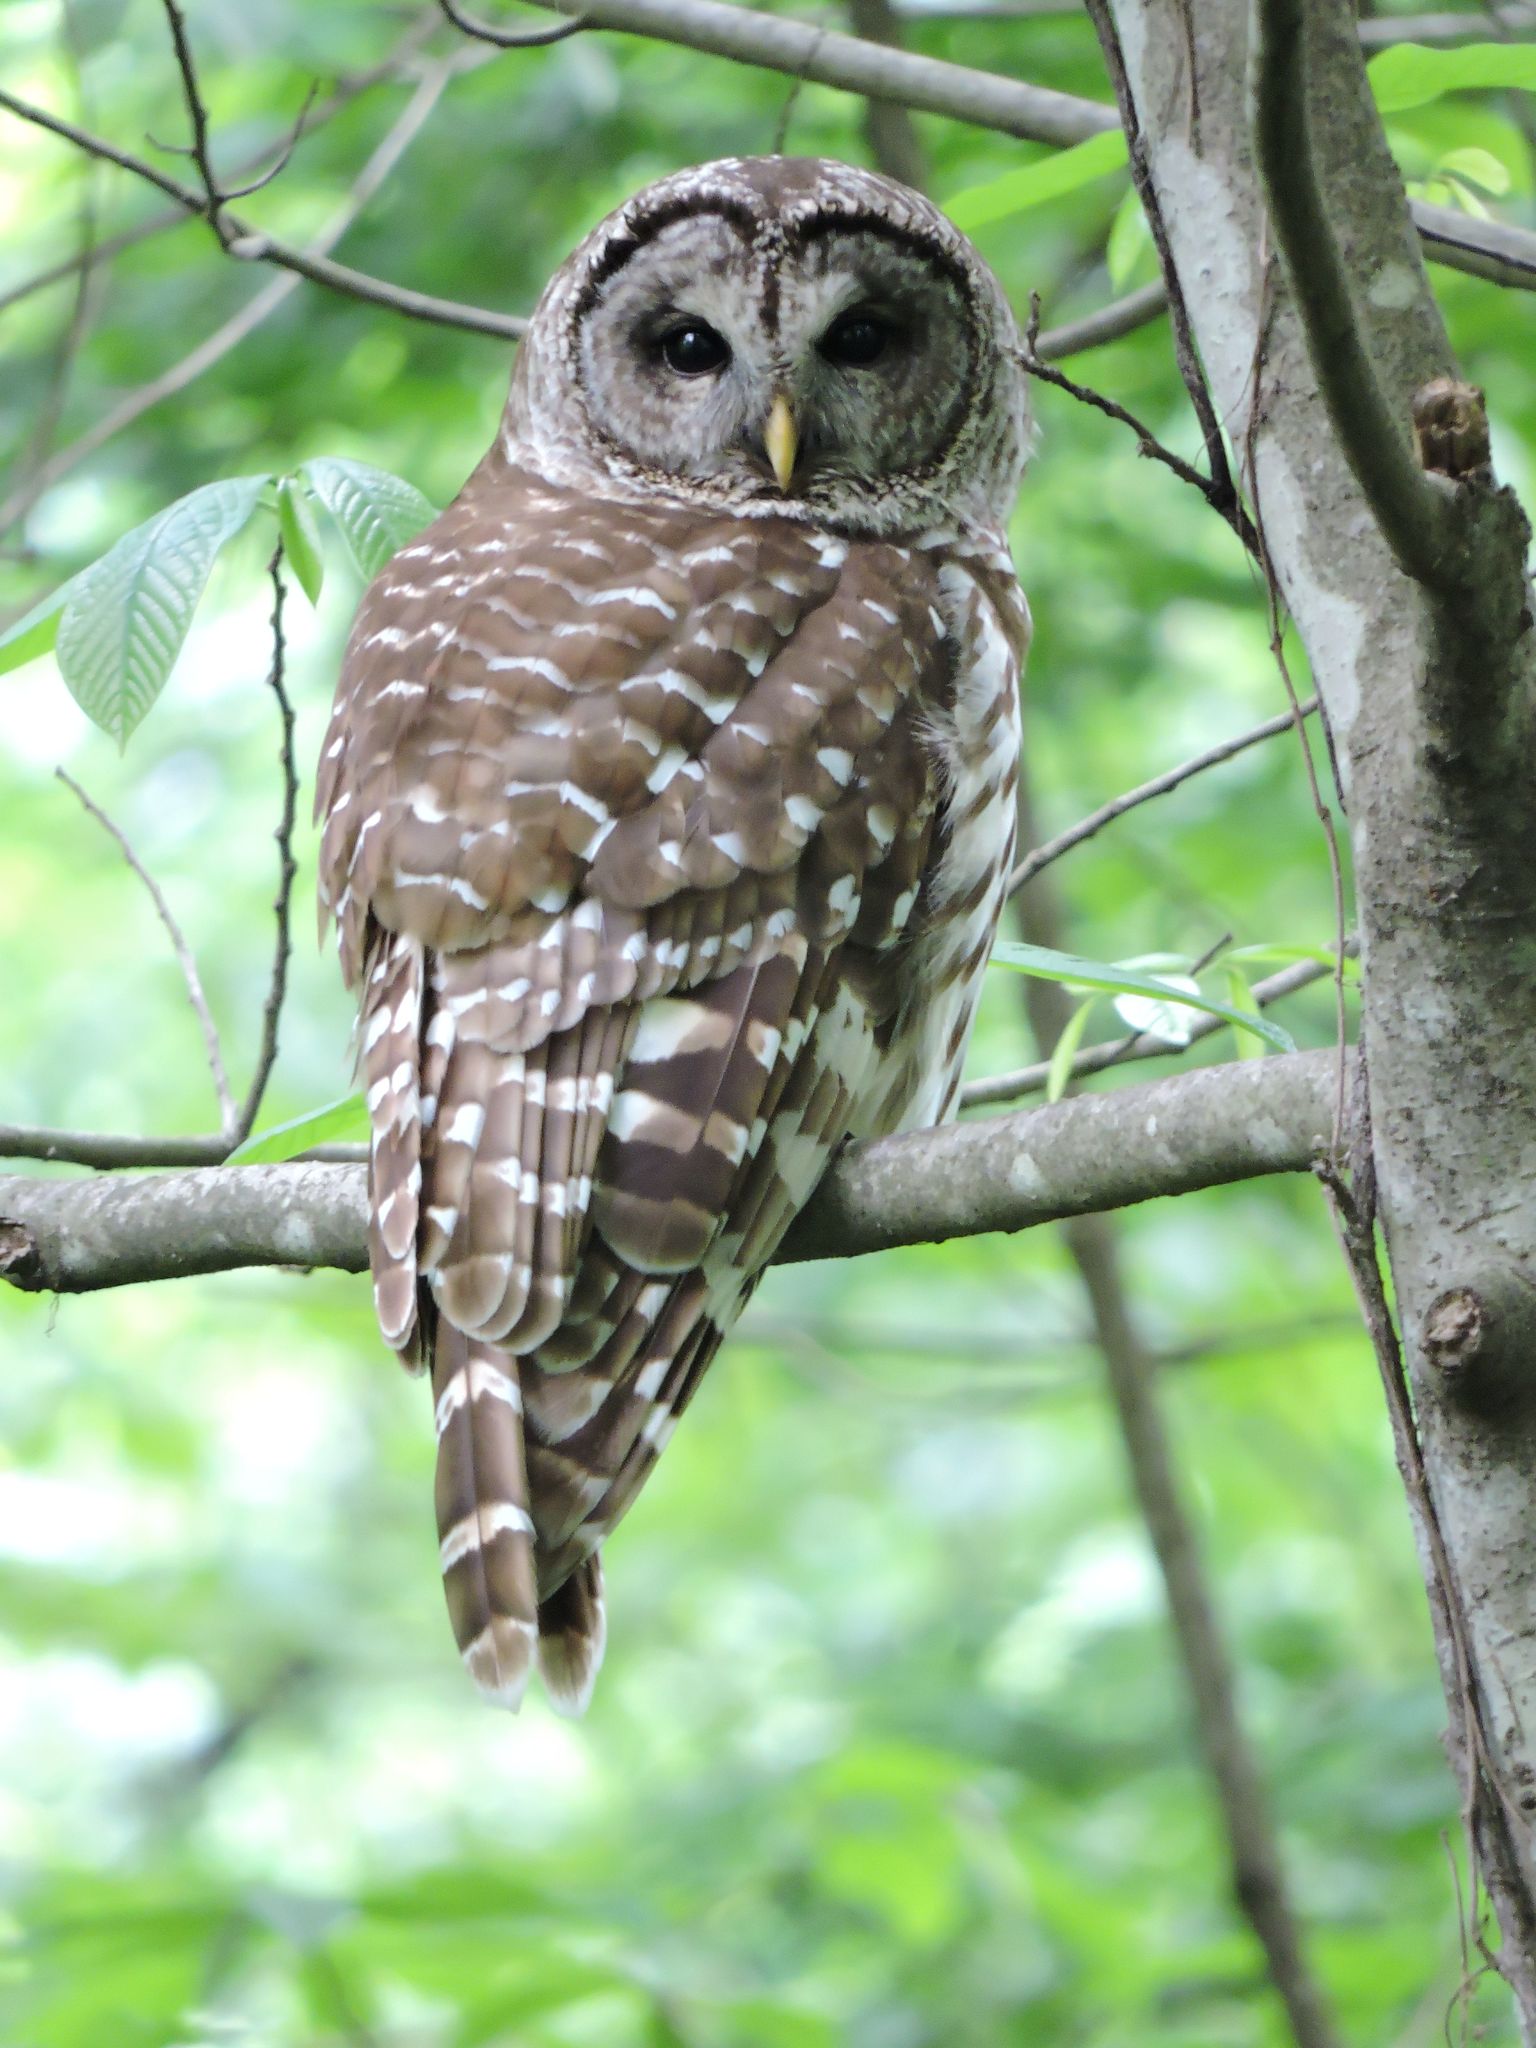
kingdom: Animalia
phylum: Chordata
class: Aves
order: Strigiformes
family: Strigidae
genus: Strix
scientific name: Strix varia
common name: Barred owl
